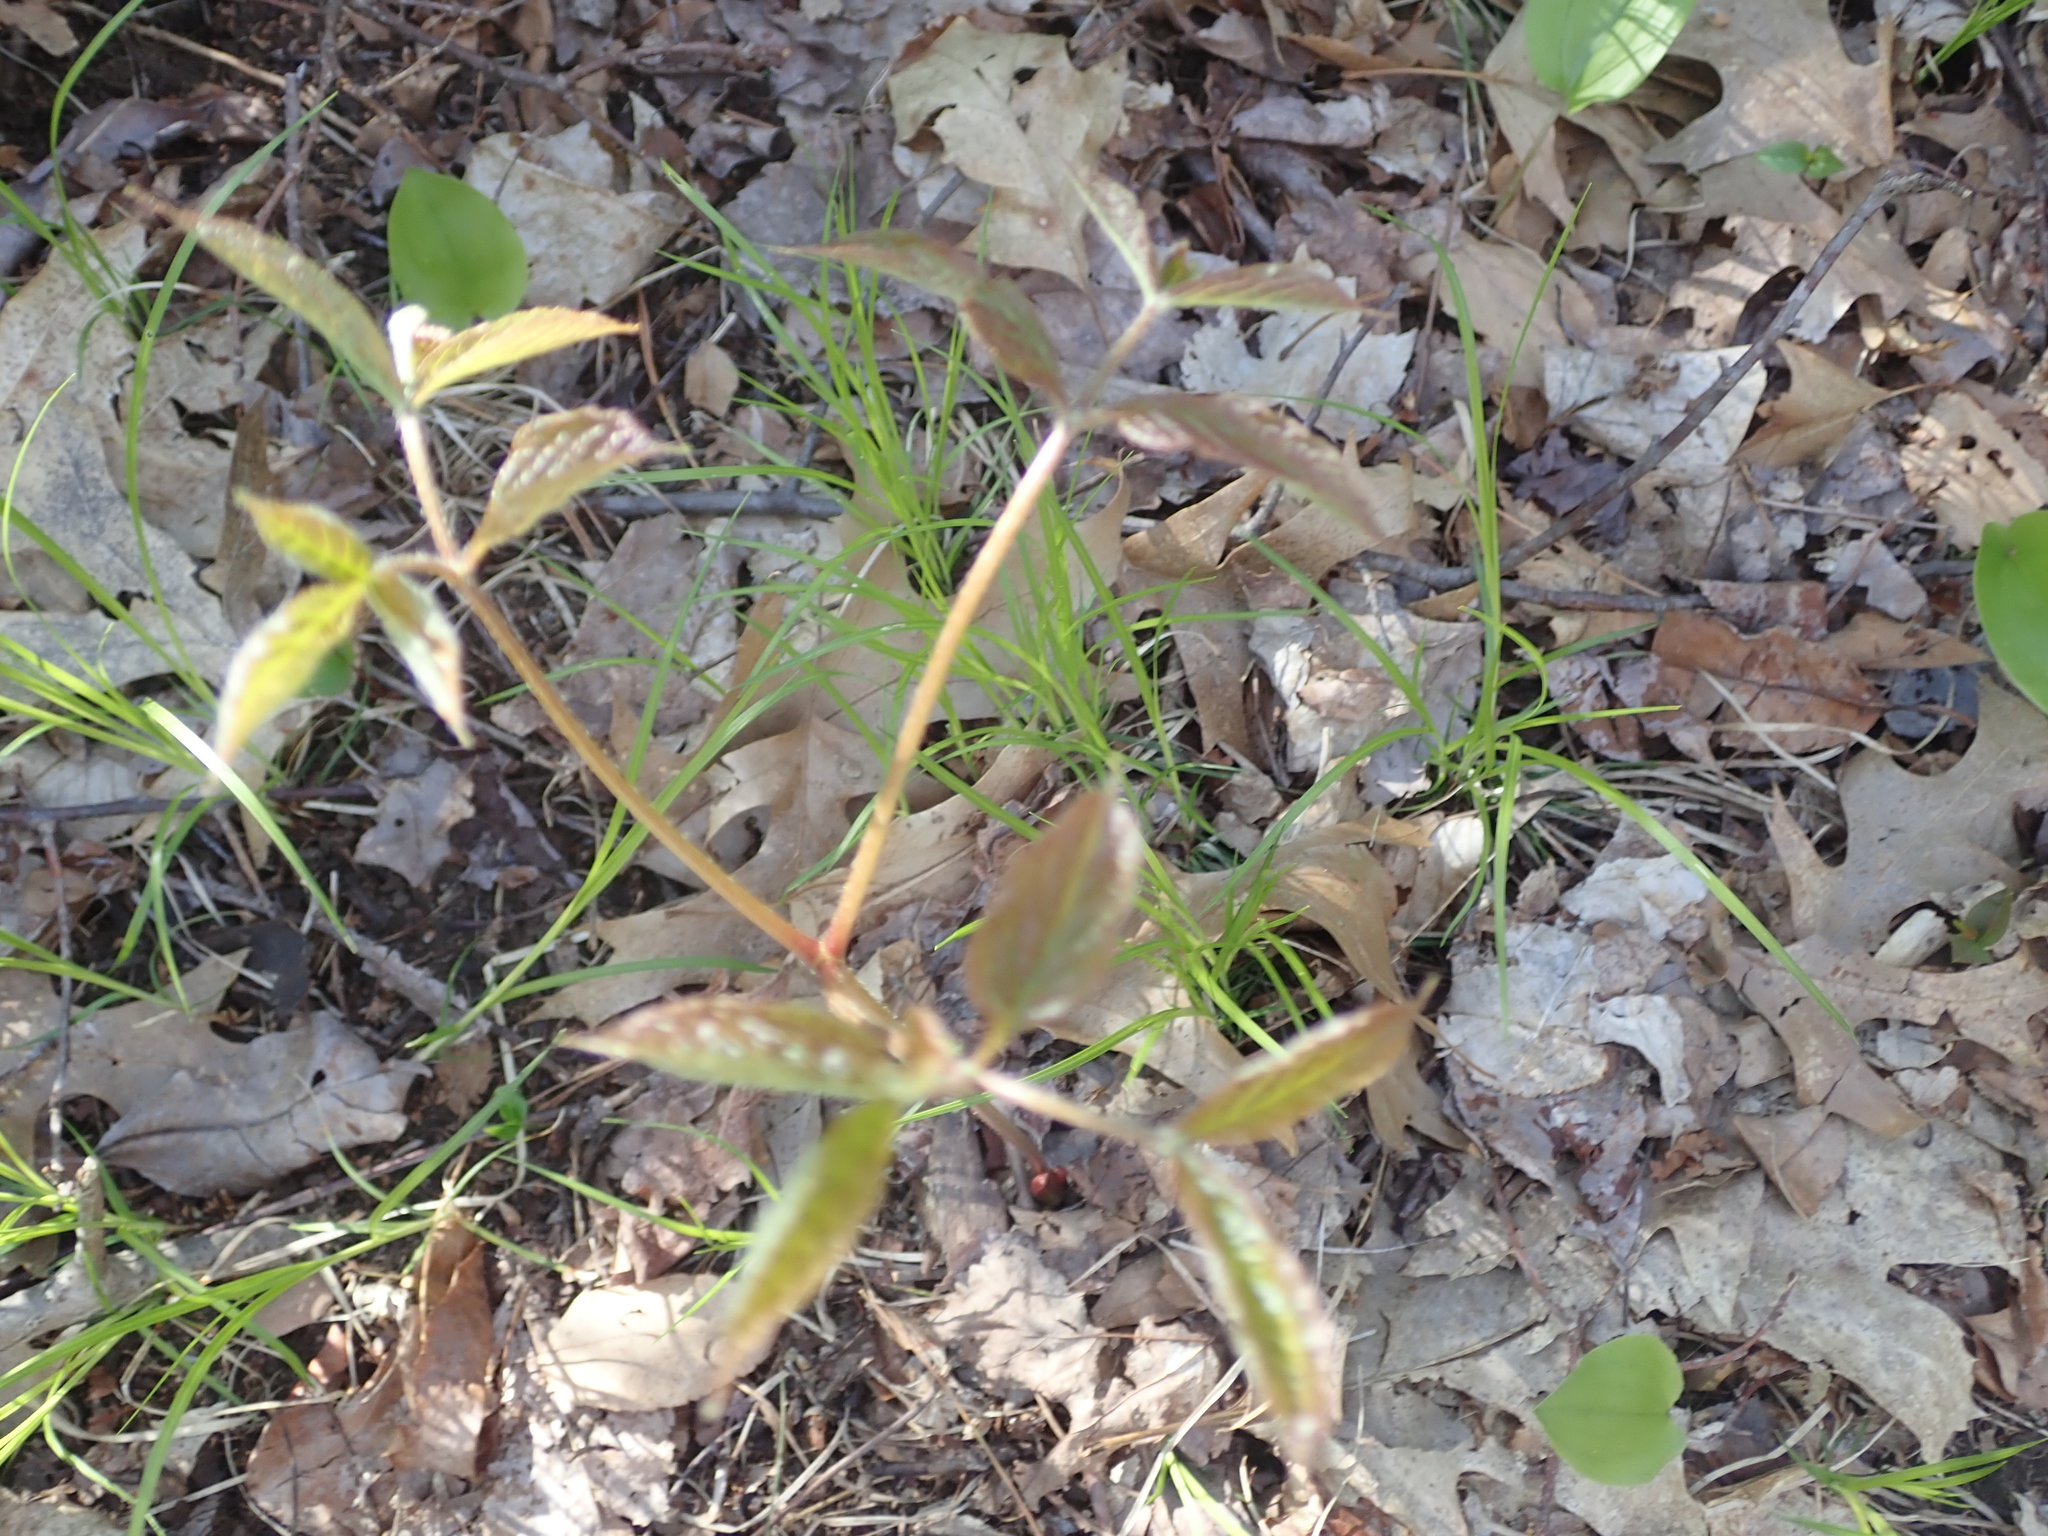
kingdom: Plantae
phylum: Tracheophyta
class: Magnoliopsida
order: Apiales
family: Araliaceae
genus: Aralia
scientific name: Aralia nudicaulis
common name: Wild sarsaparilla
